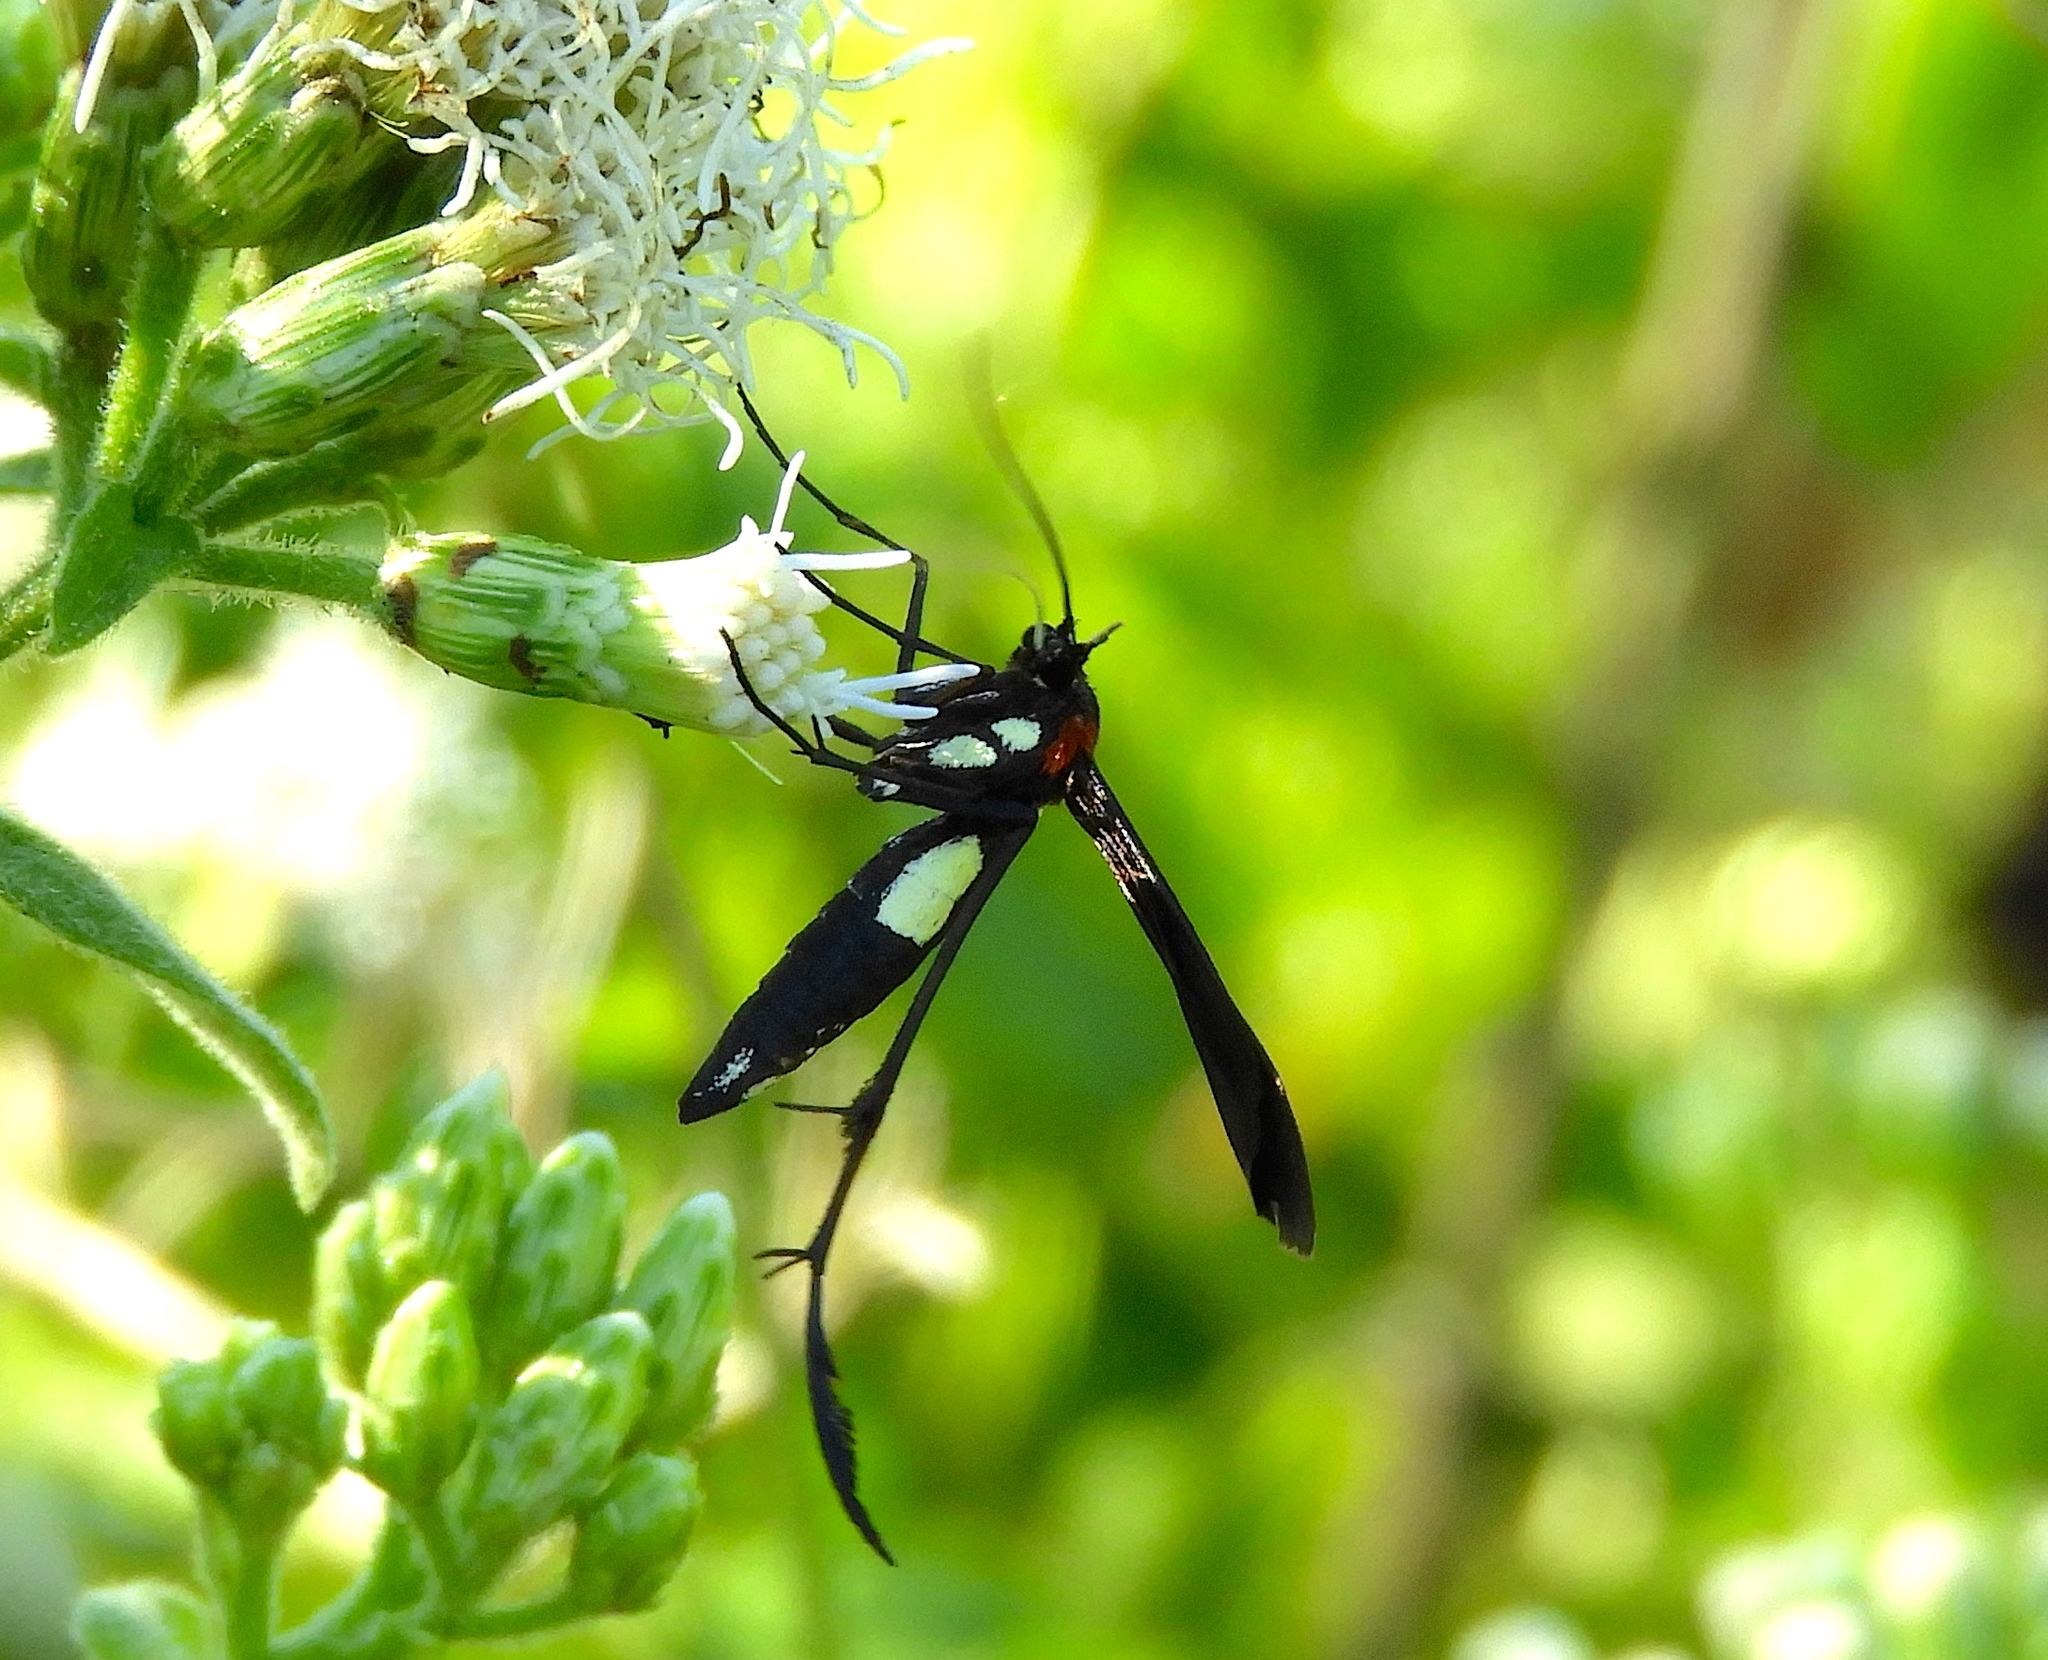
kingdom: Animalia
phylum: Arthropoda
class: Insecta
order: Lepidoptera
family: Pterophoridae
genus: Hellinsia
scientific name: Hellinsia chamelai
